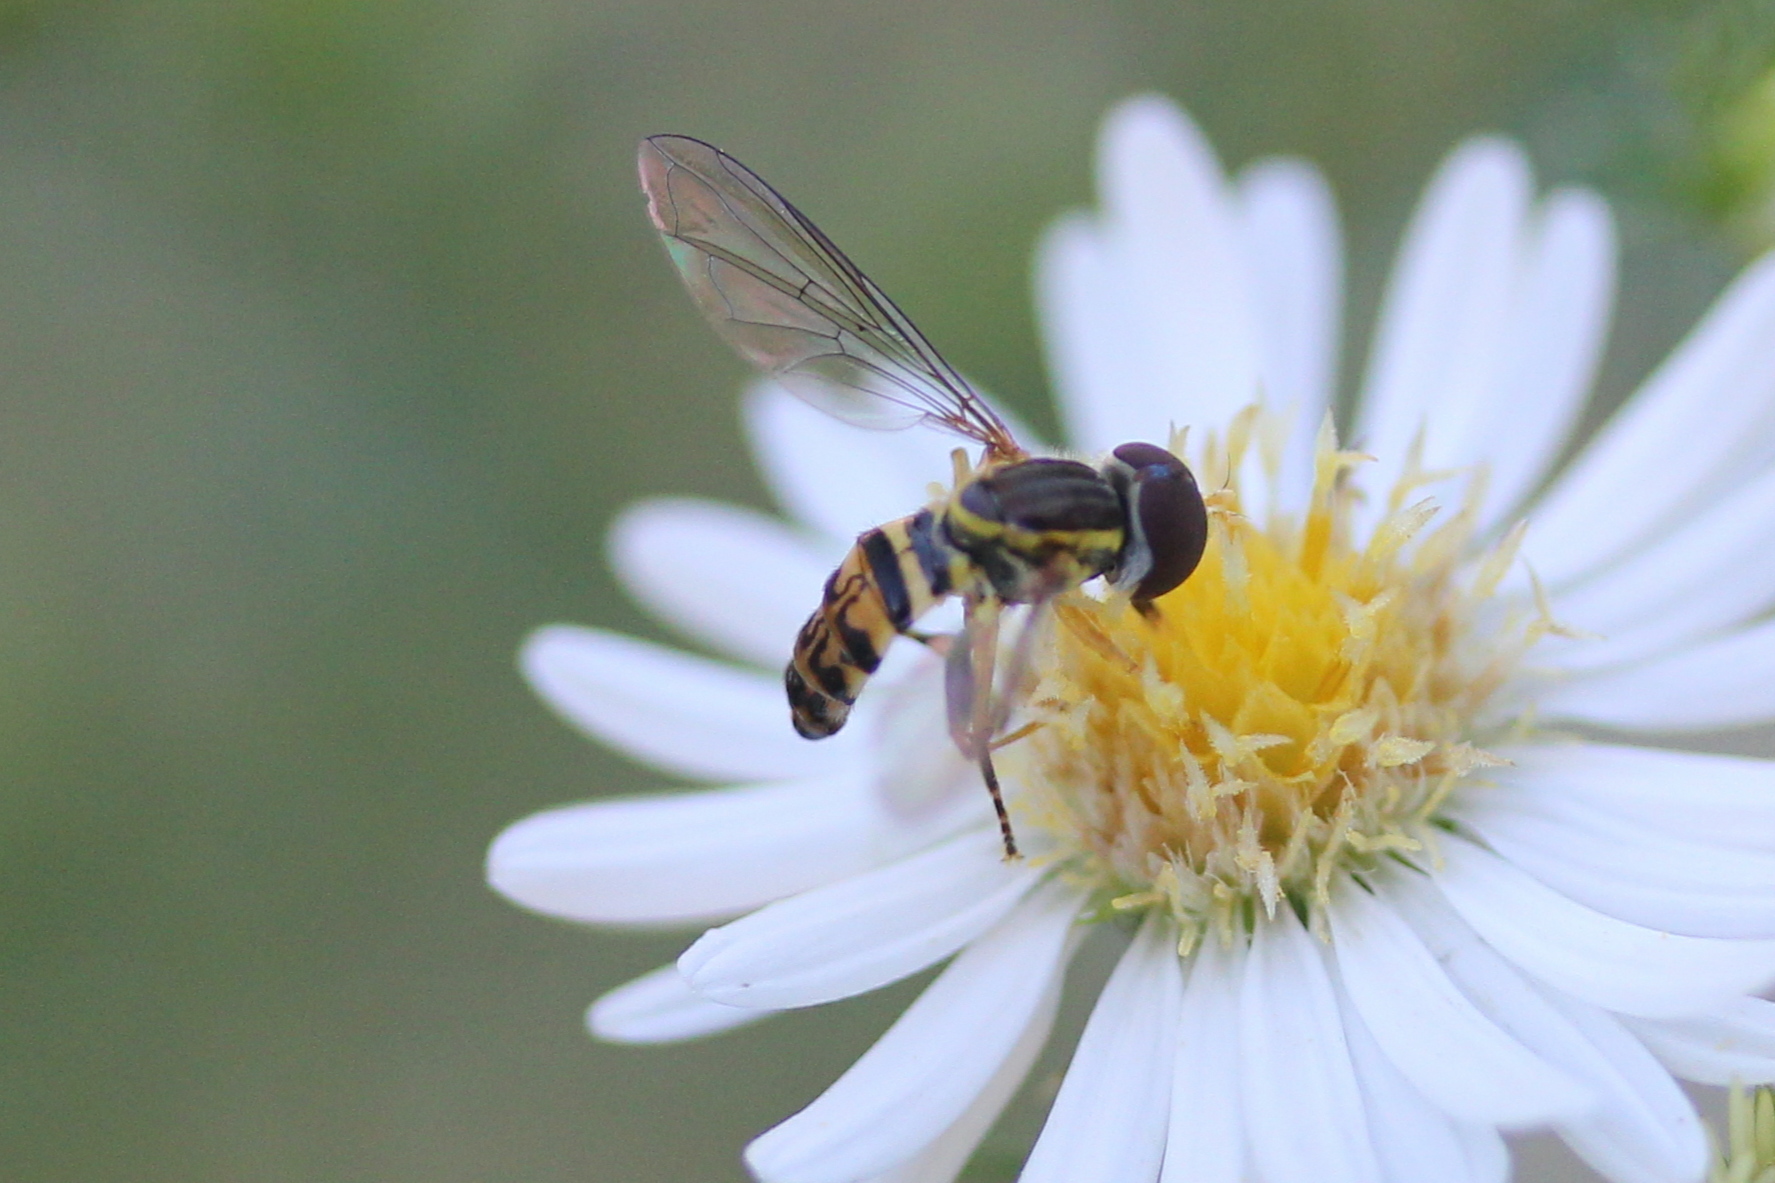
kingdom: Animalia
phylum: Arthropoda
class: Insecta
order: Diptera
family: Syrphidae
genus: Toxomerus
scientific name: Toxomerus geminatus
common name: Eastern calligrapher
